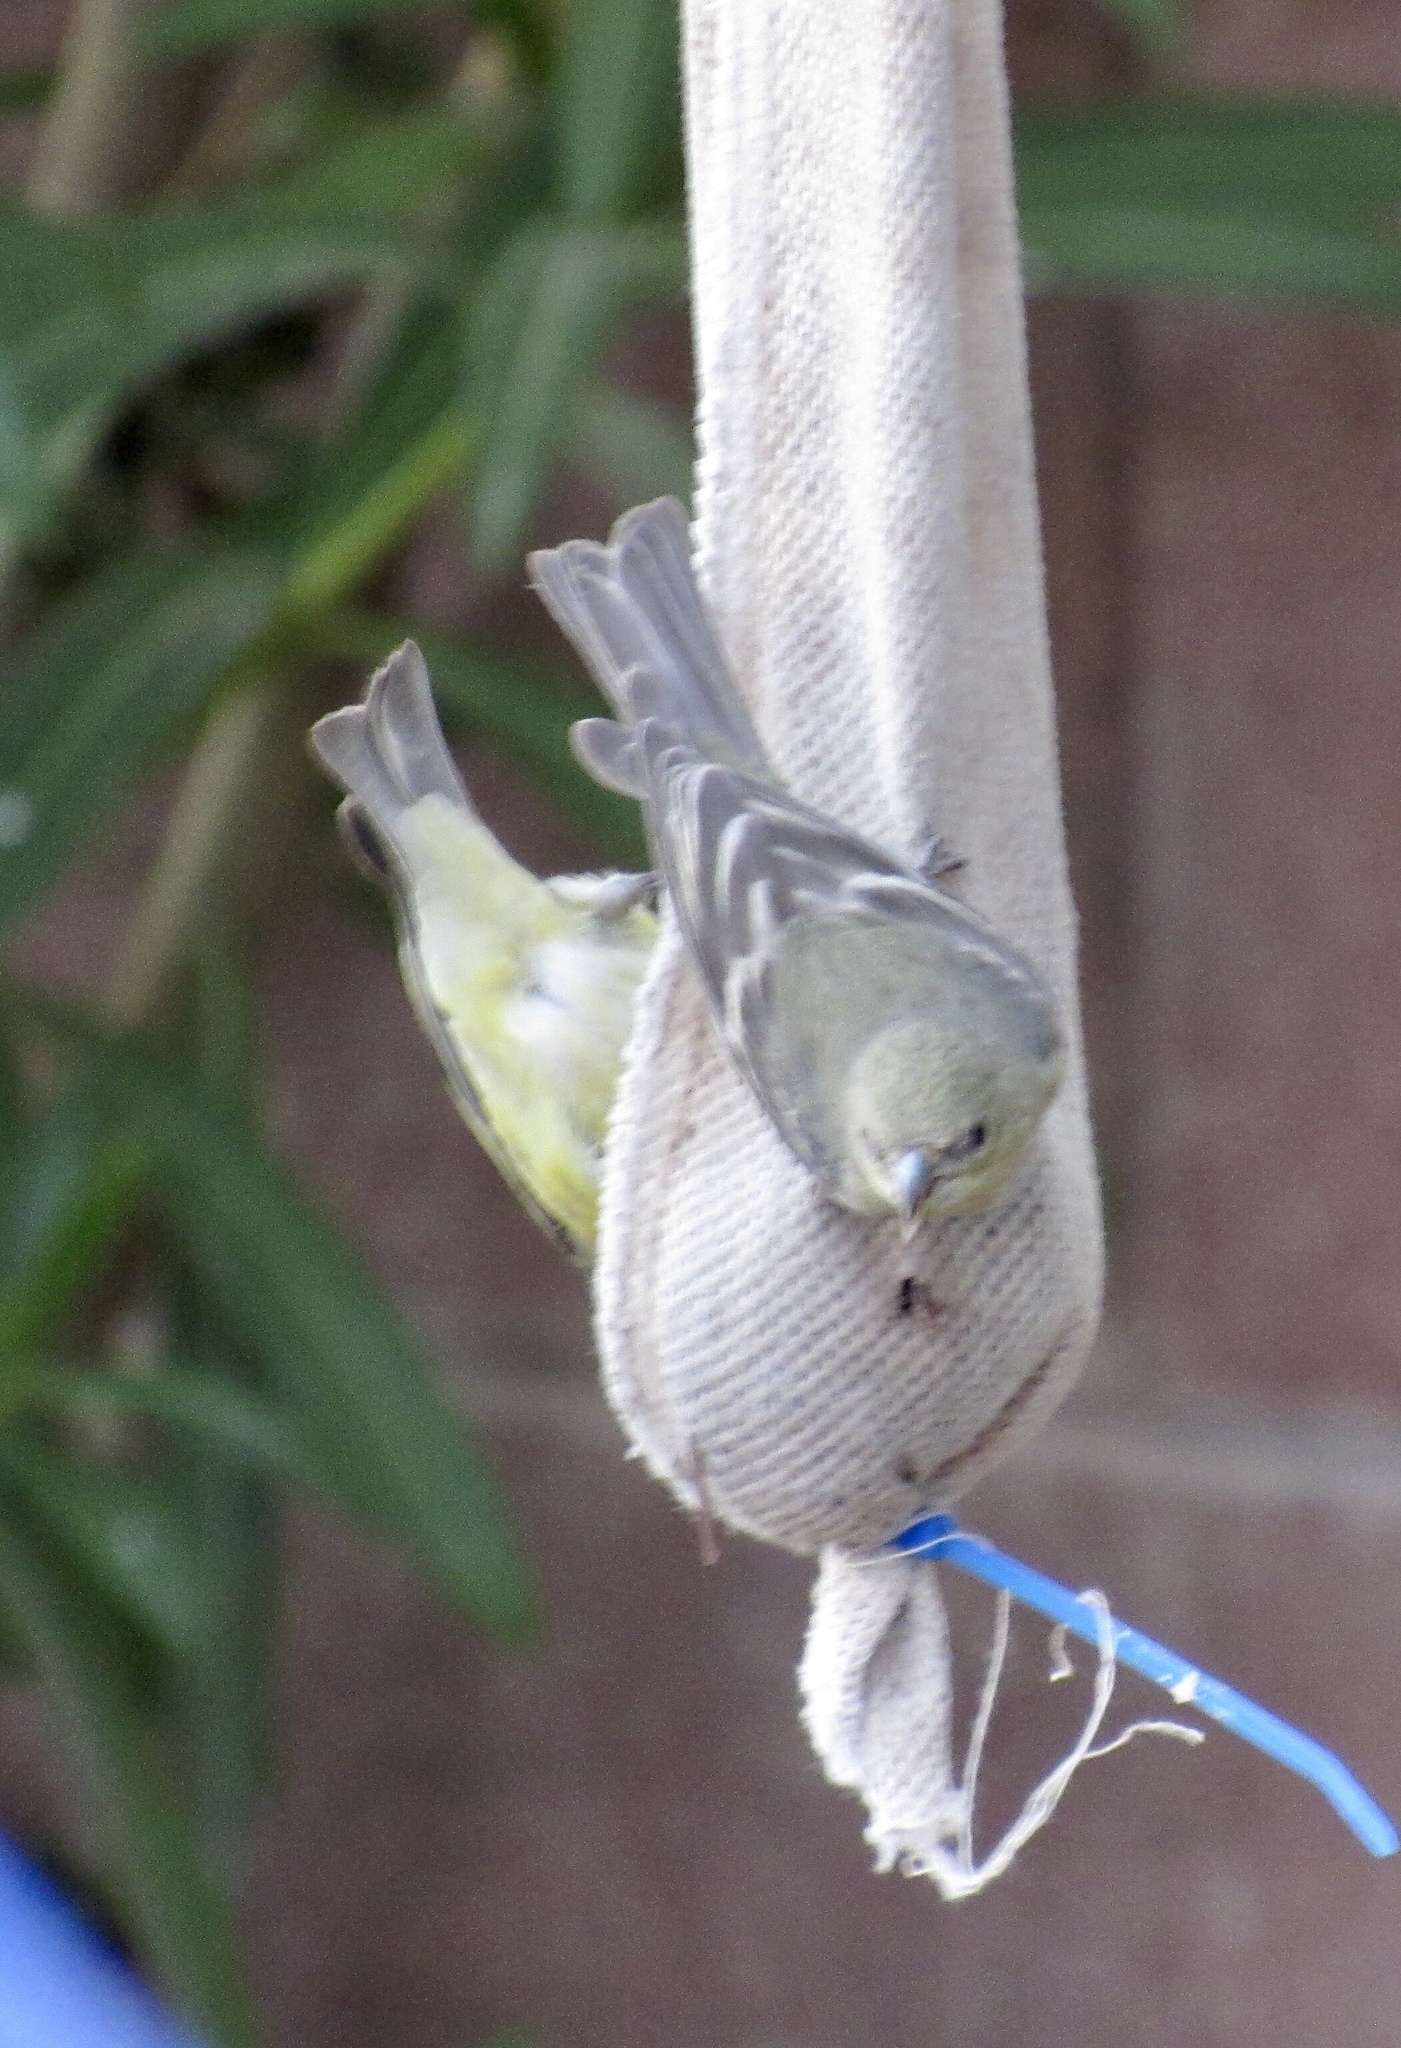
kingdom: Animalia
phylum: Chordata
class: Aves
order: Passeriformes
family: Fringillidae
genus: Spinus
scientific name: Spinus psaltria
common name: Lesser goldfinch
